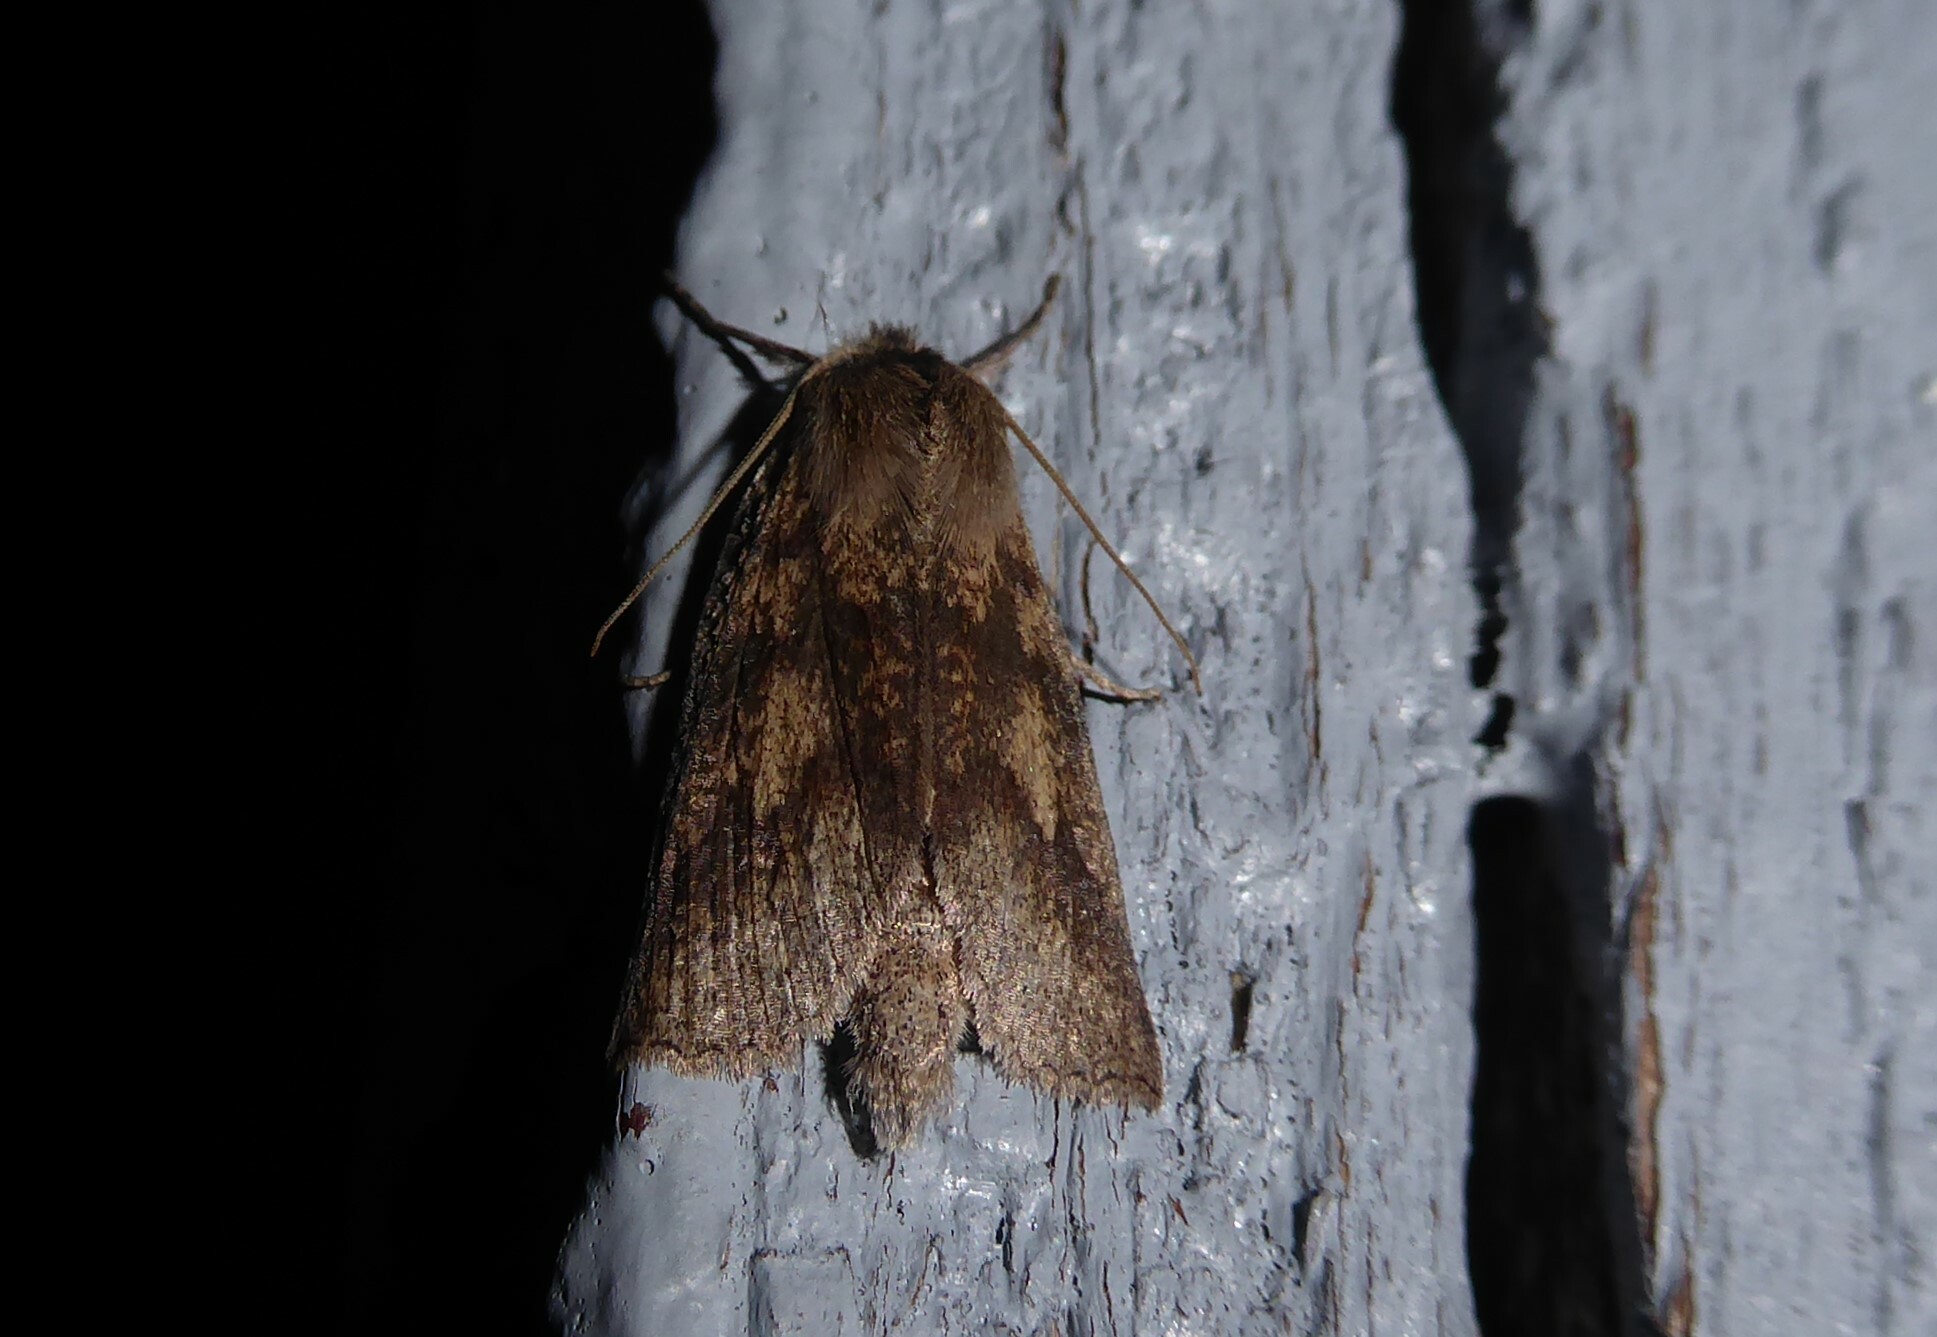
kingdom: Animalia
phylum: Arthropoda
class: Insecta
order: Lepidoptera
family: Geometridae
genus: Declana
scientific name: Declana leptomera
